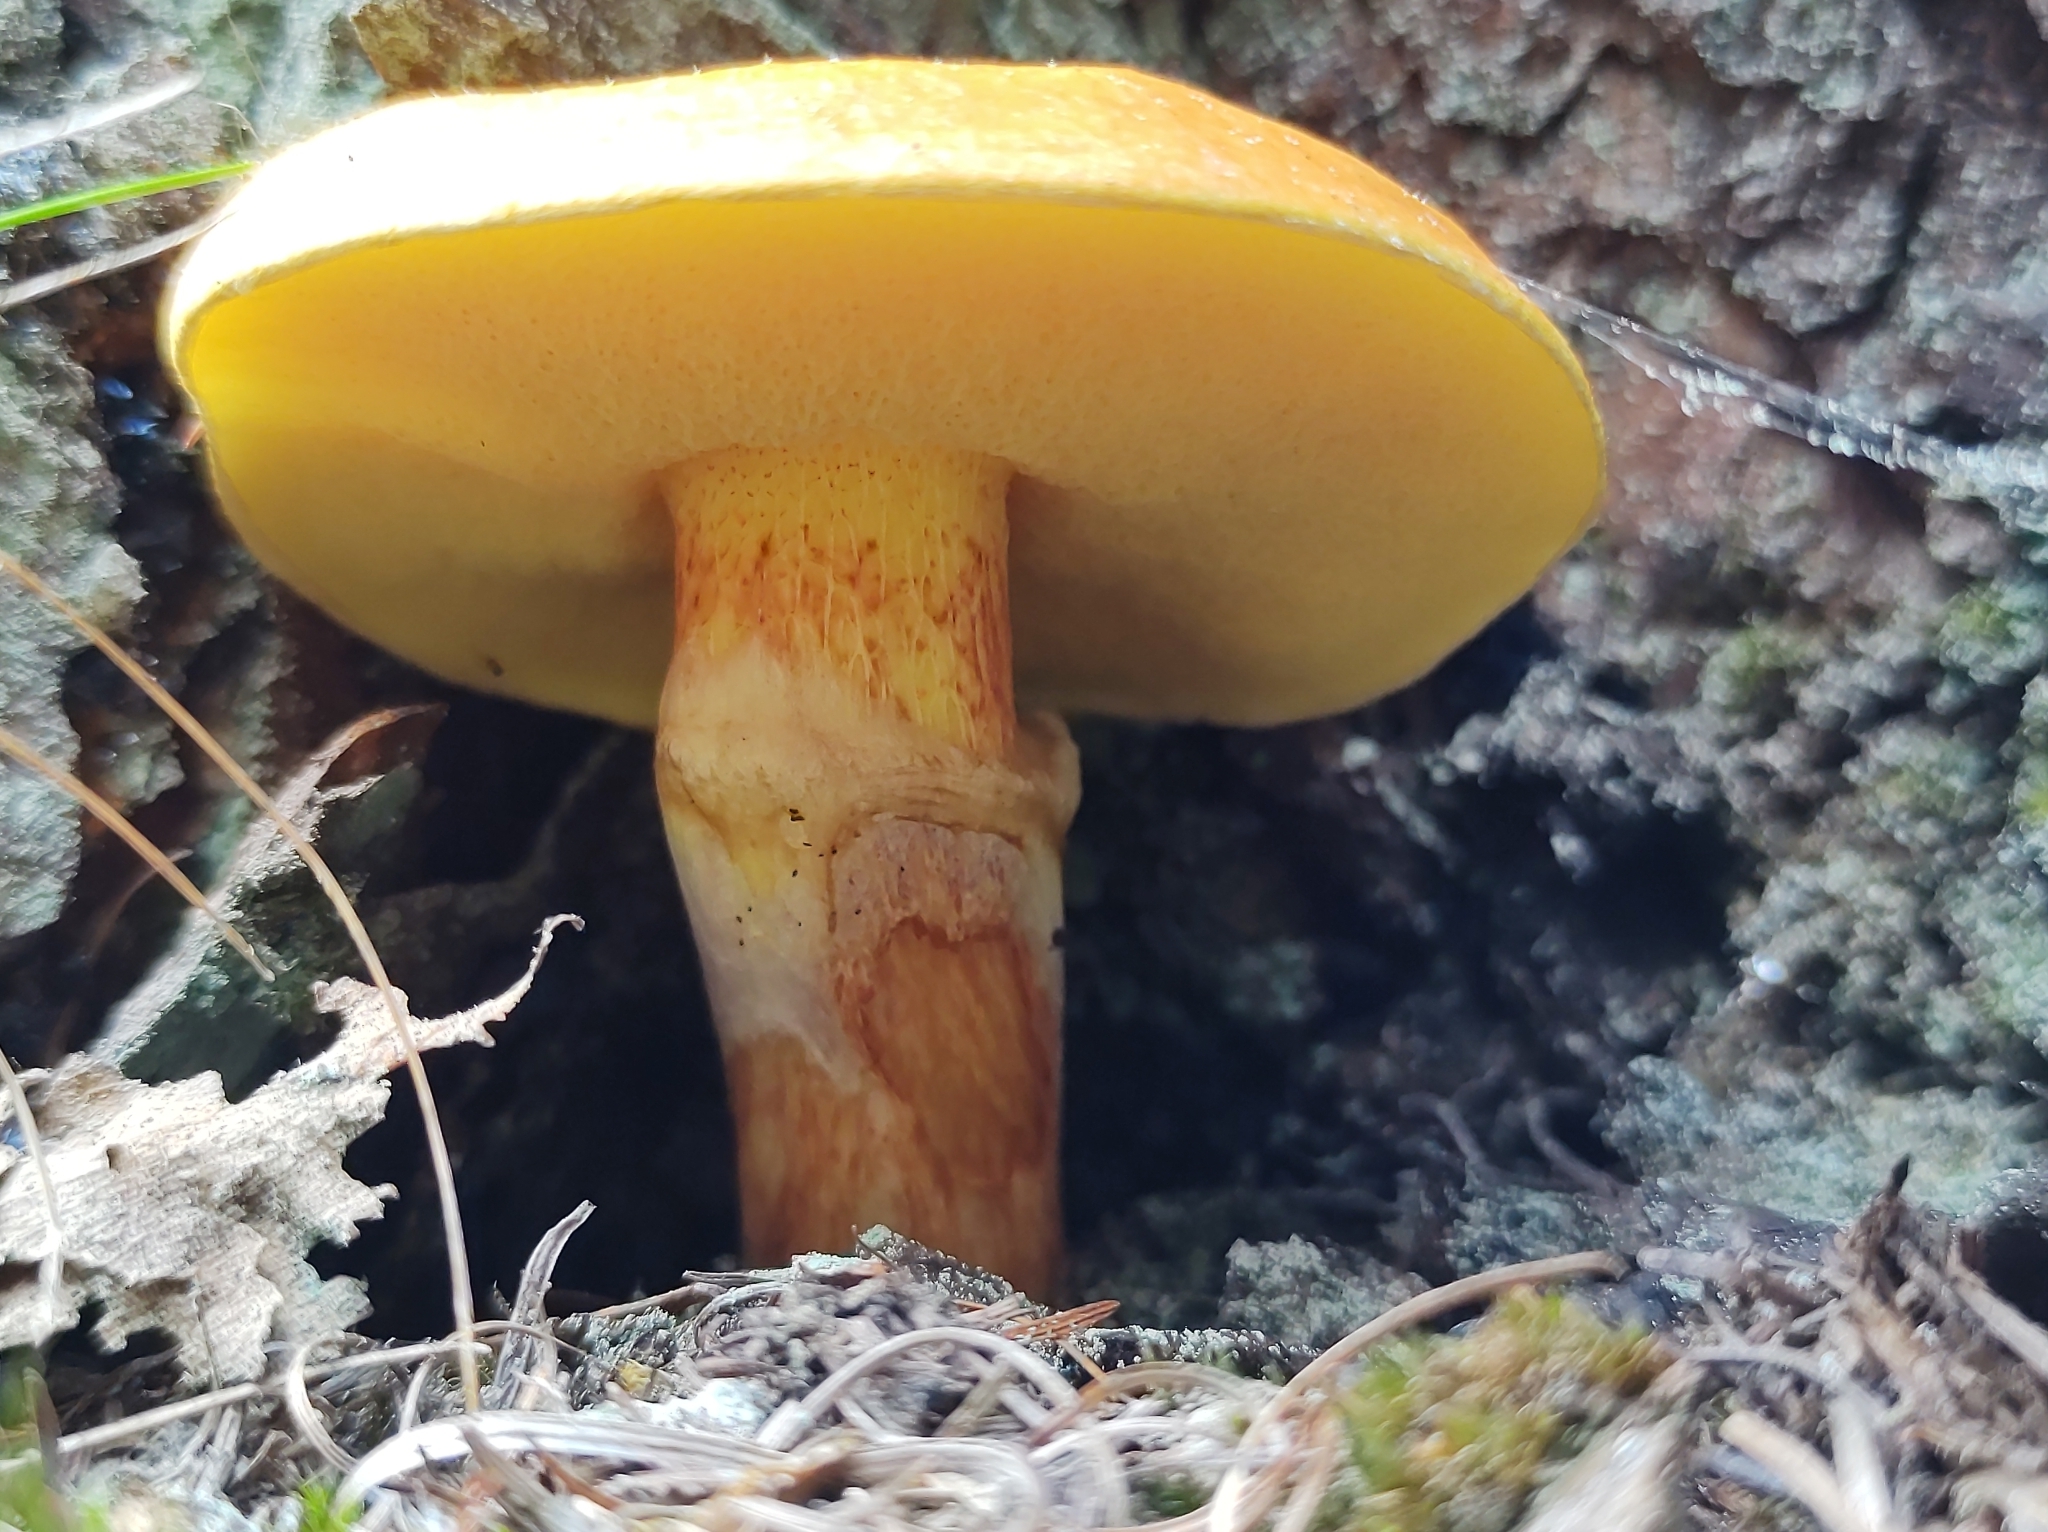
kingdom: Fungi
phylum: Basidiomycota
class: Agaricomycetes
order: Boletales
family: Suillaceae
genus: Suillus
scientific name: Suillus grevillei
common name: Larch bolete
